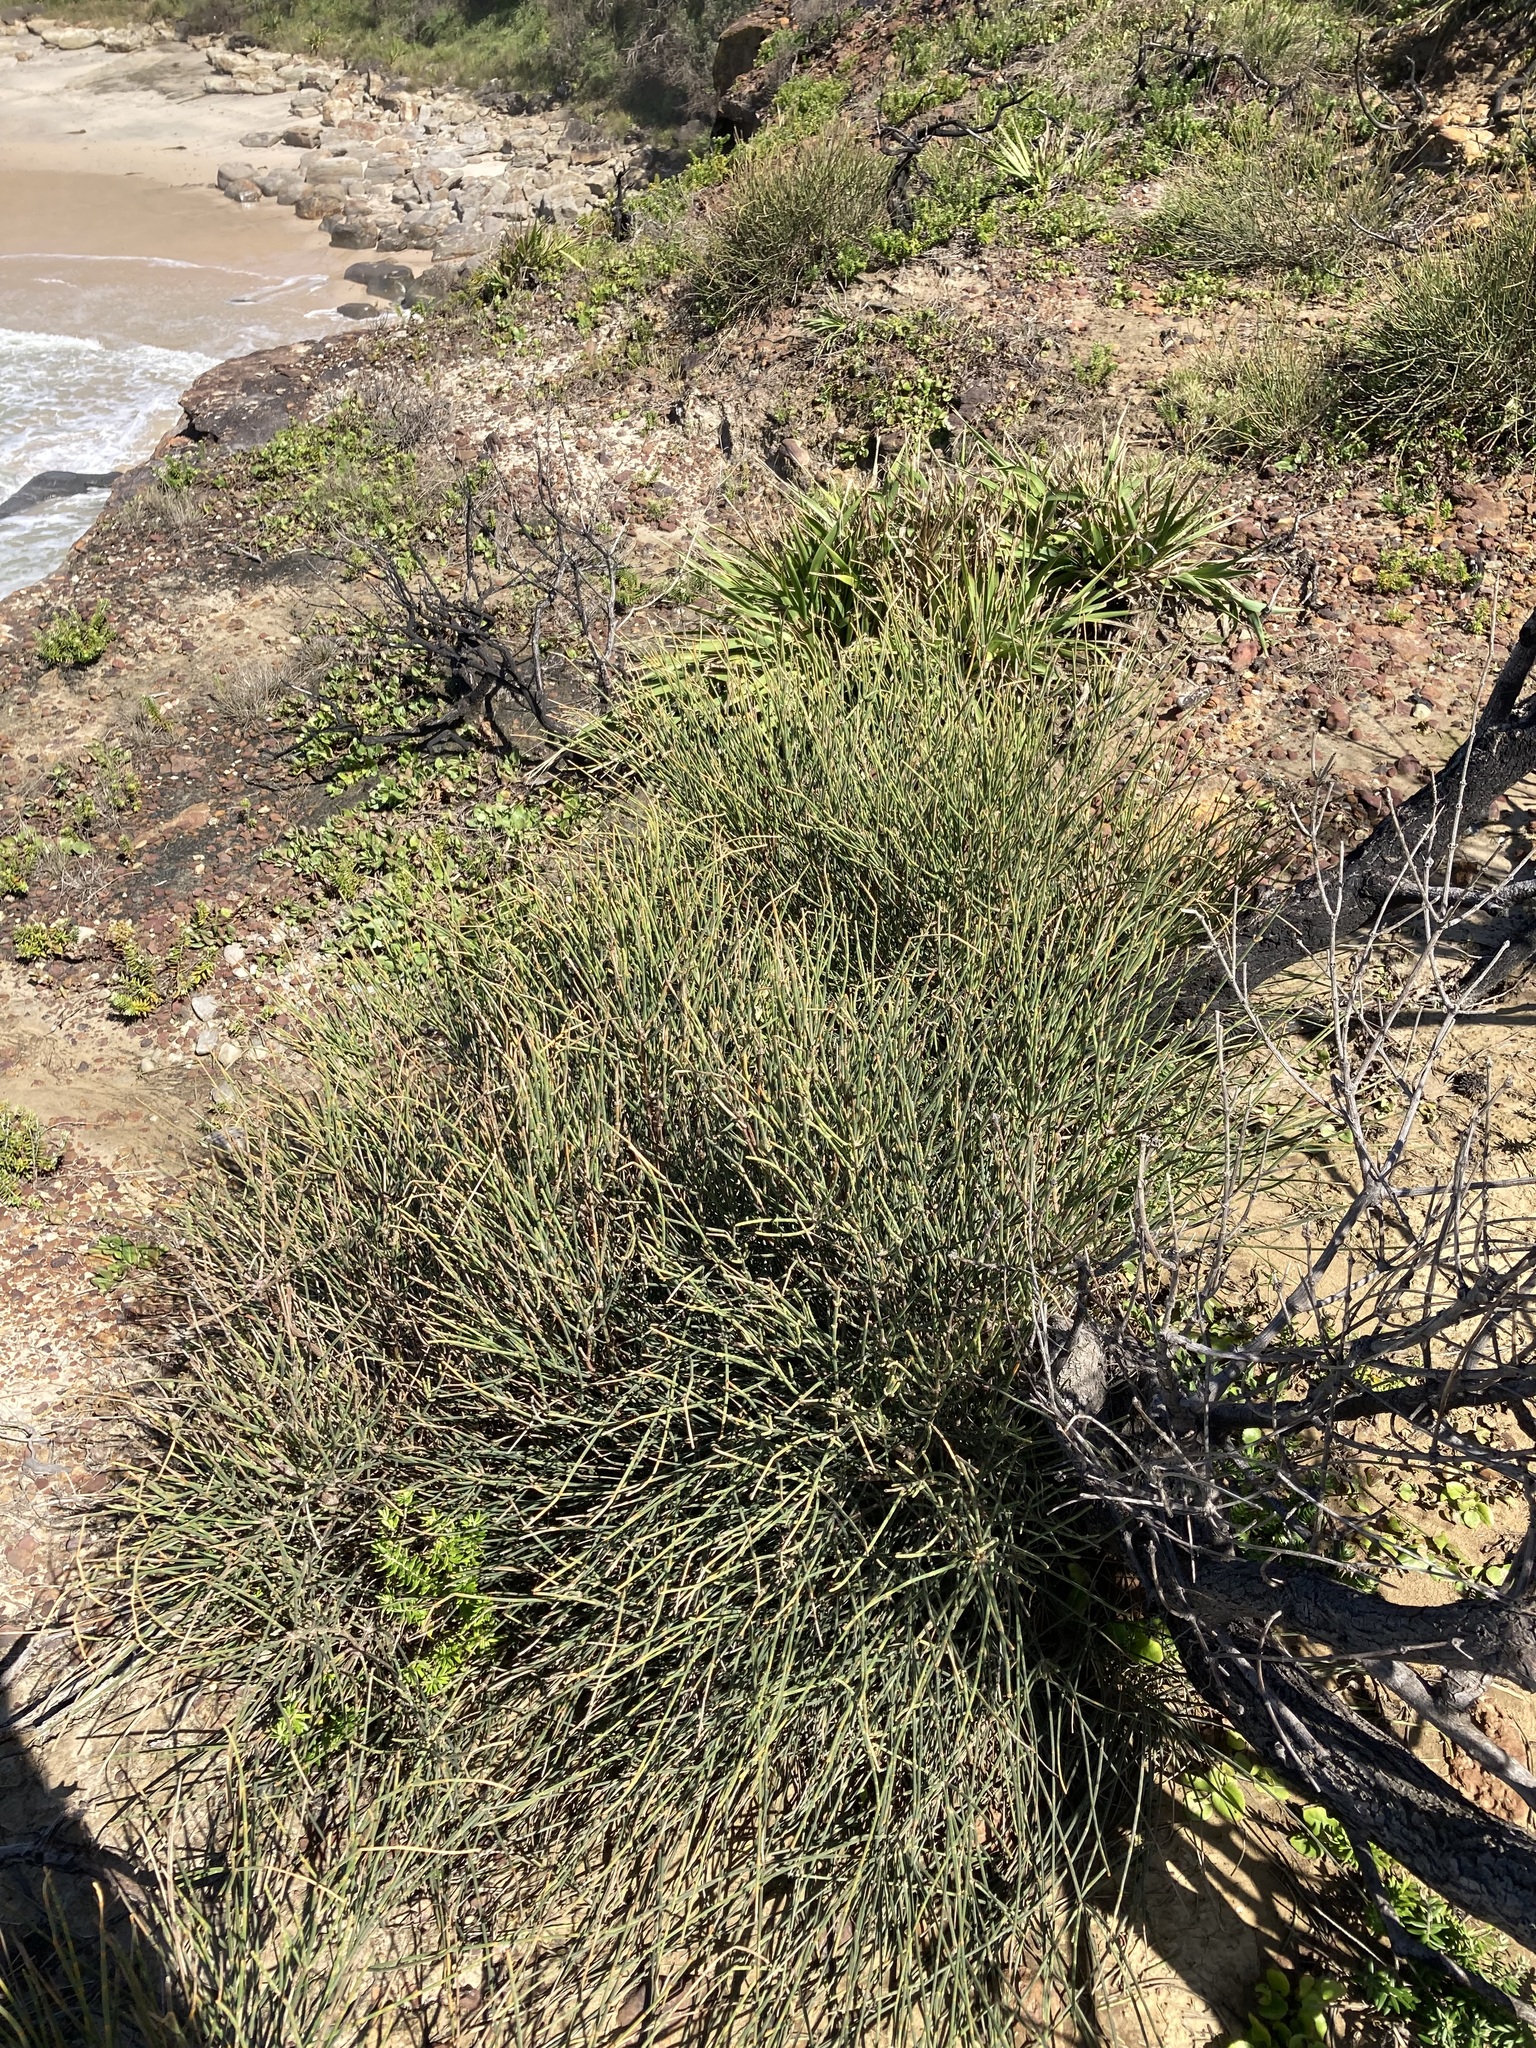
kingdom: Plantae
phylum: Tracheophyta
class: Magnoliopsida
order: Fagales
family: Casuarinaceae
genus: Allocasuarina
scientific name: Allocasuarina verticillata
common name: Drooping she-oak
